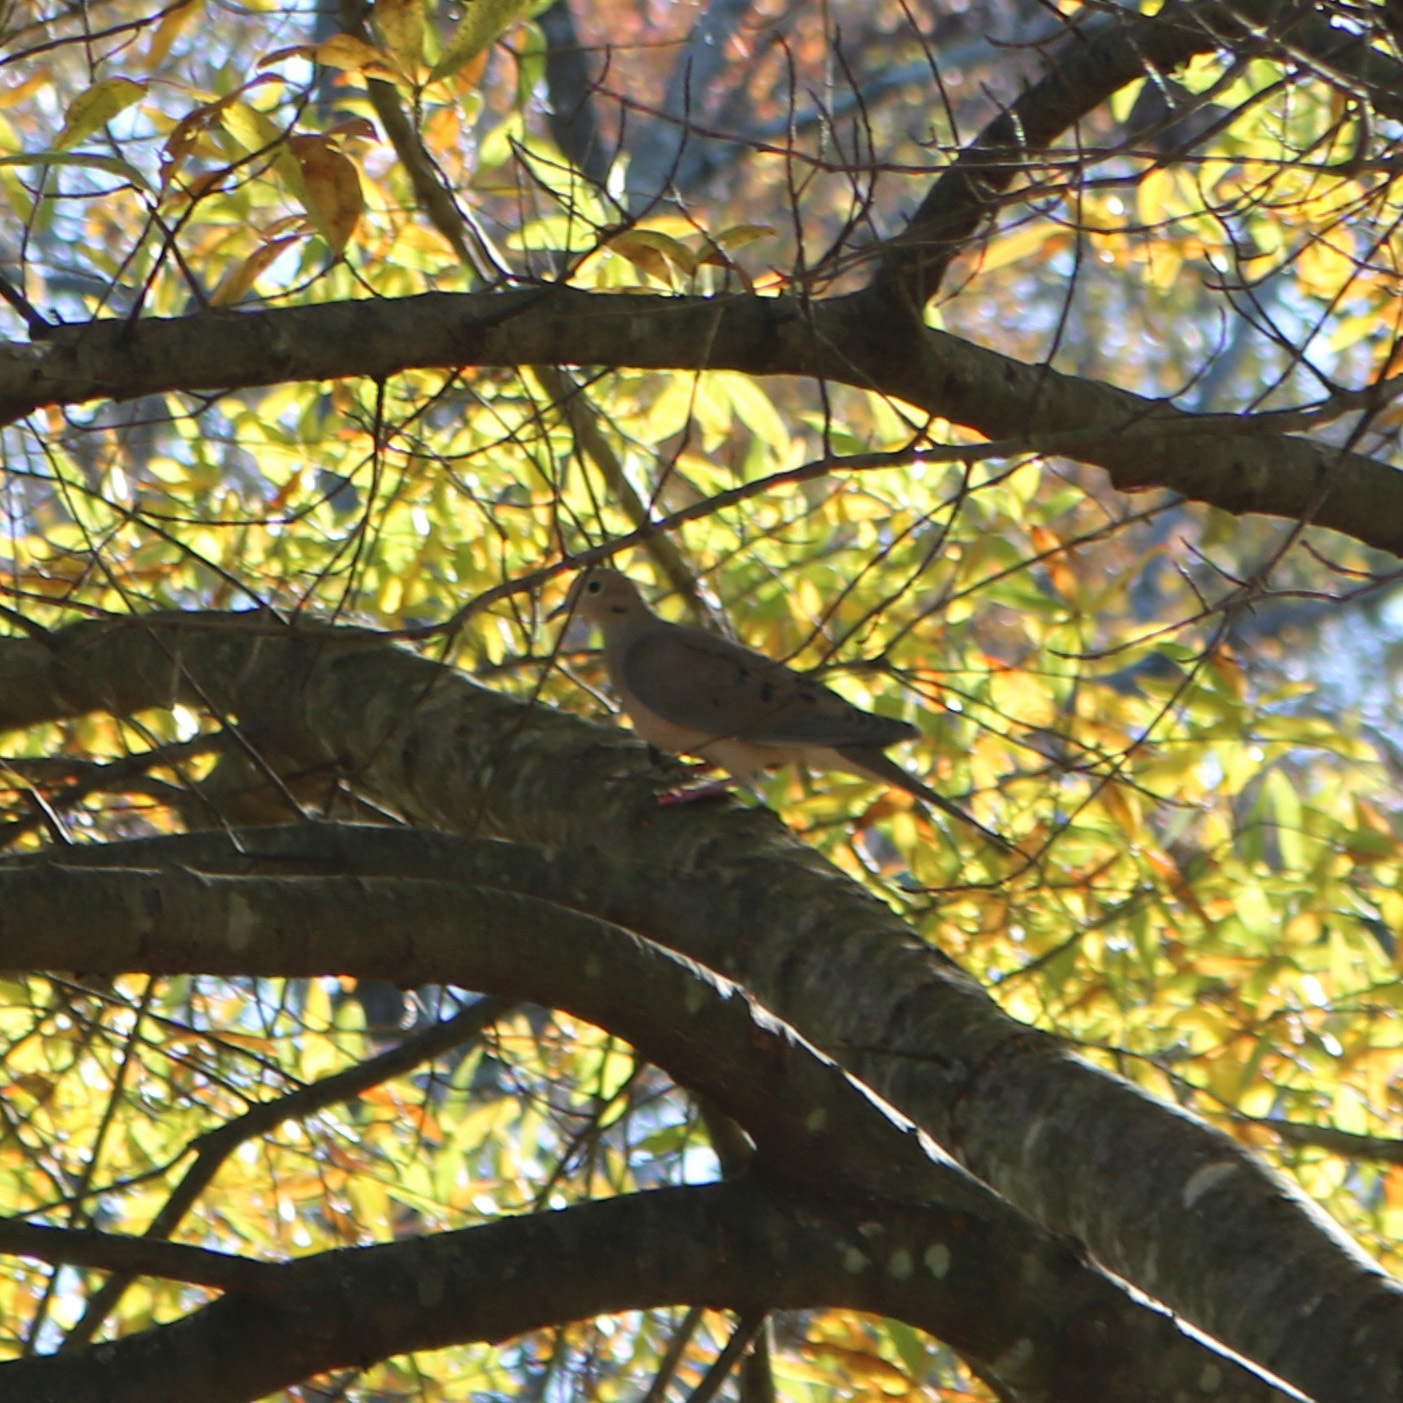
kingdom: Animalia
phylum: Chordata
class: Aves
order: Columbiformes
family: Columbidae
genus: Zenaida
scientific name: Zenaida macroura
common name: Mourning dove
